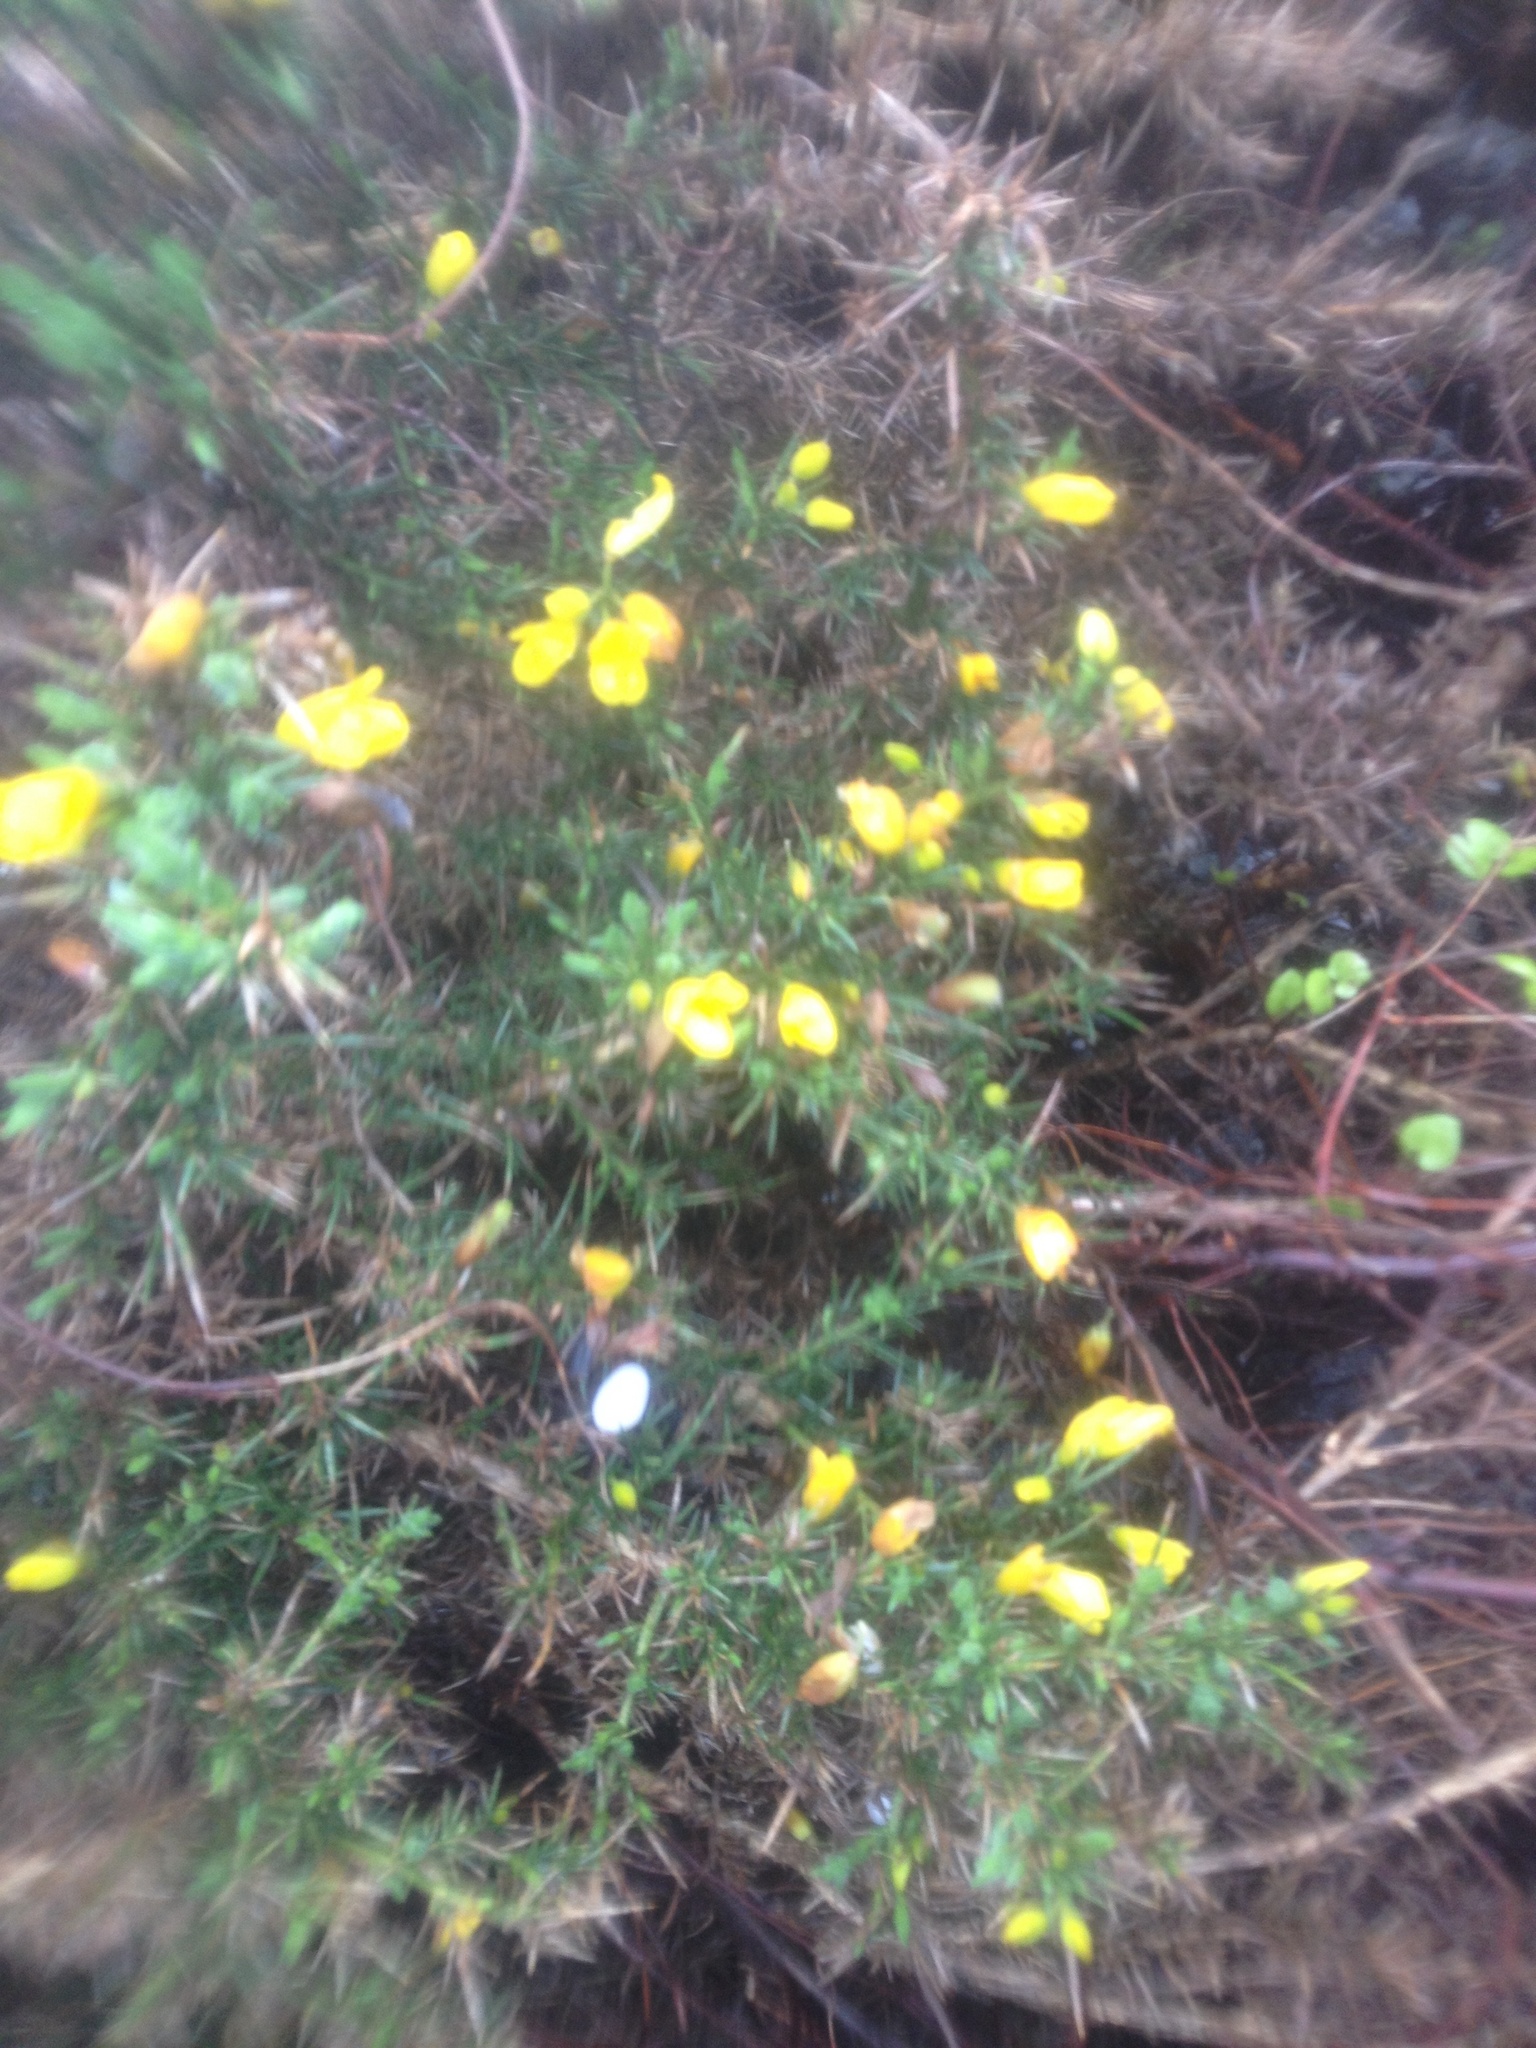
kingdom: Plantae
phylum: Tracheophyta
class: Magnoliopsida
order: Fabales
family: Fabaceae
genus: Ulex
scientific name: Ulex europaeus
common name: Common gorse
